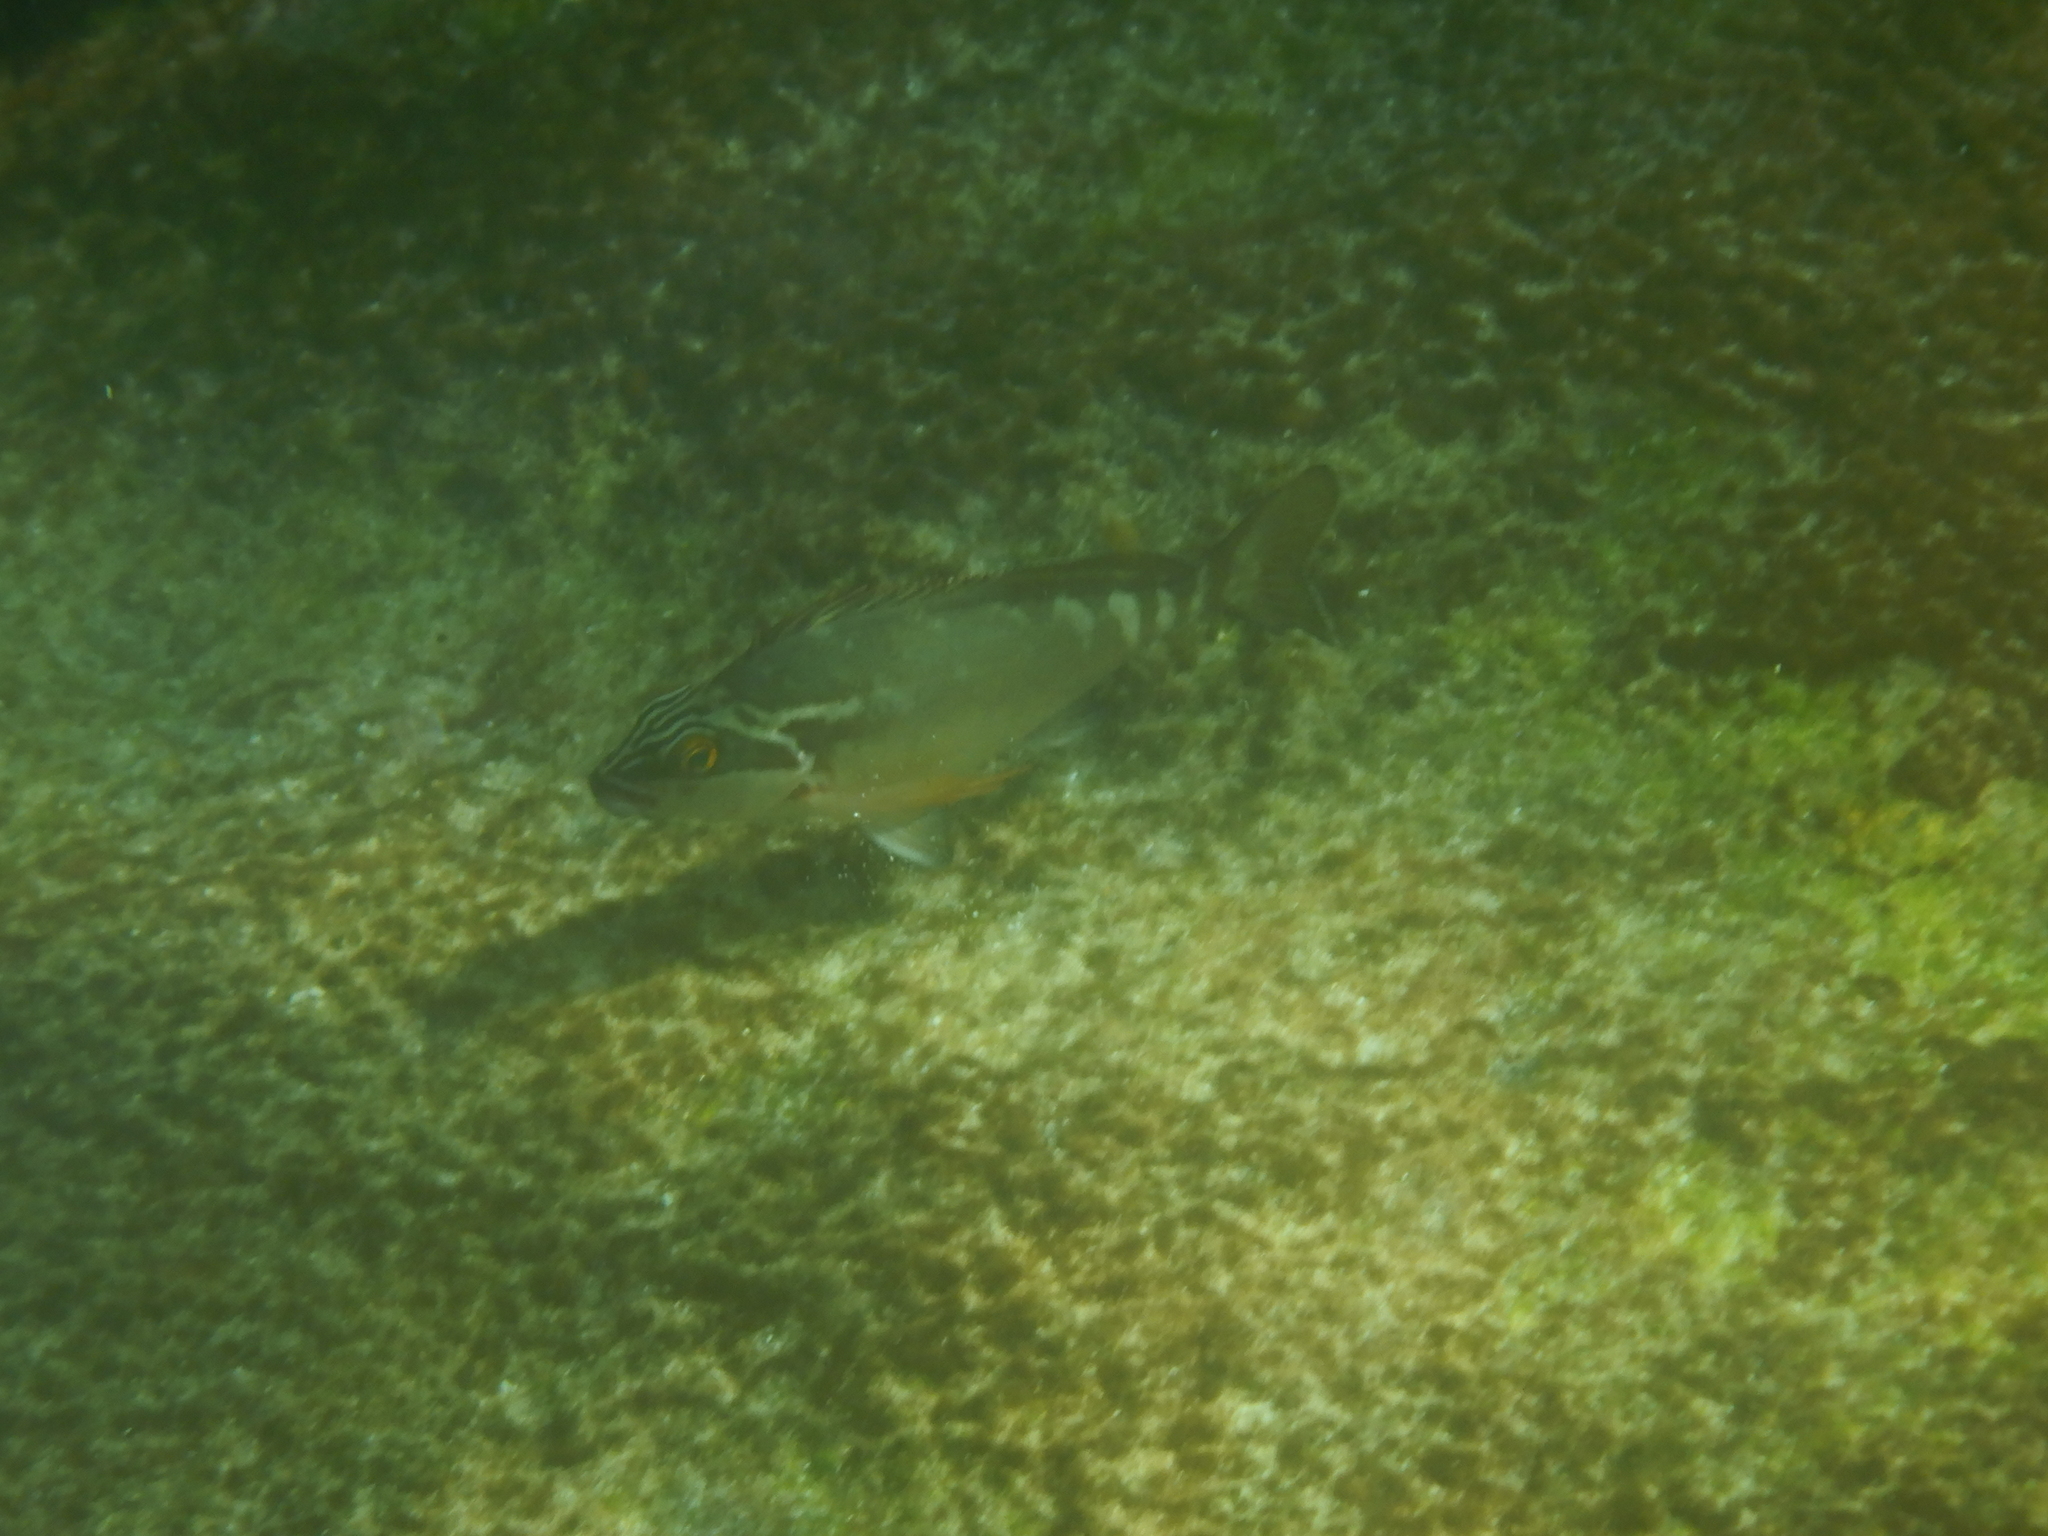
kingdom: Animalia
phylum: Chordata
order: Perciformes
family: Latridae
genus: Morwong
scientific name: Morwong fuscus
